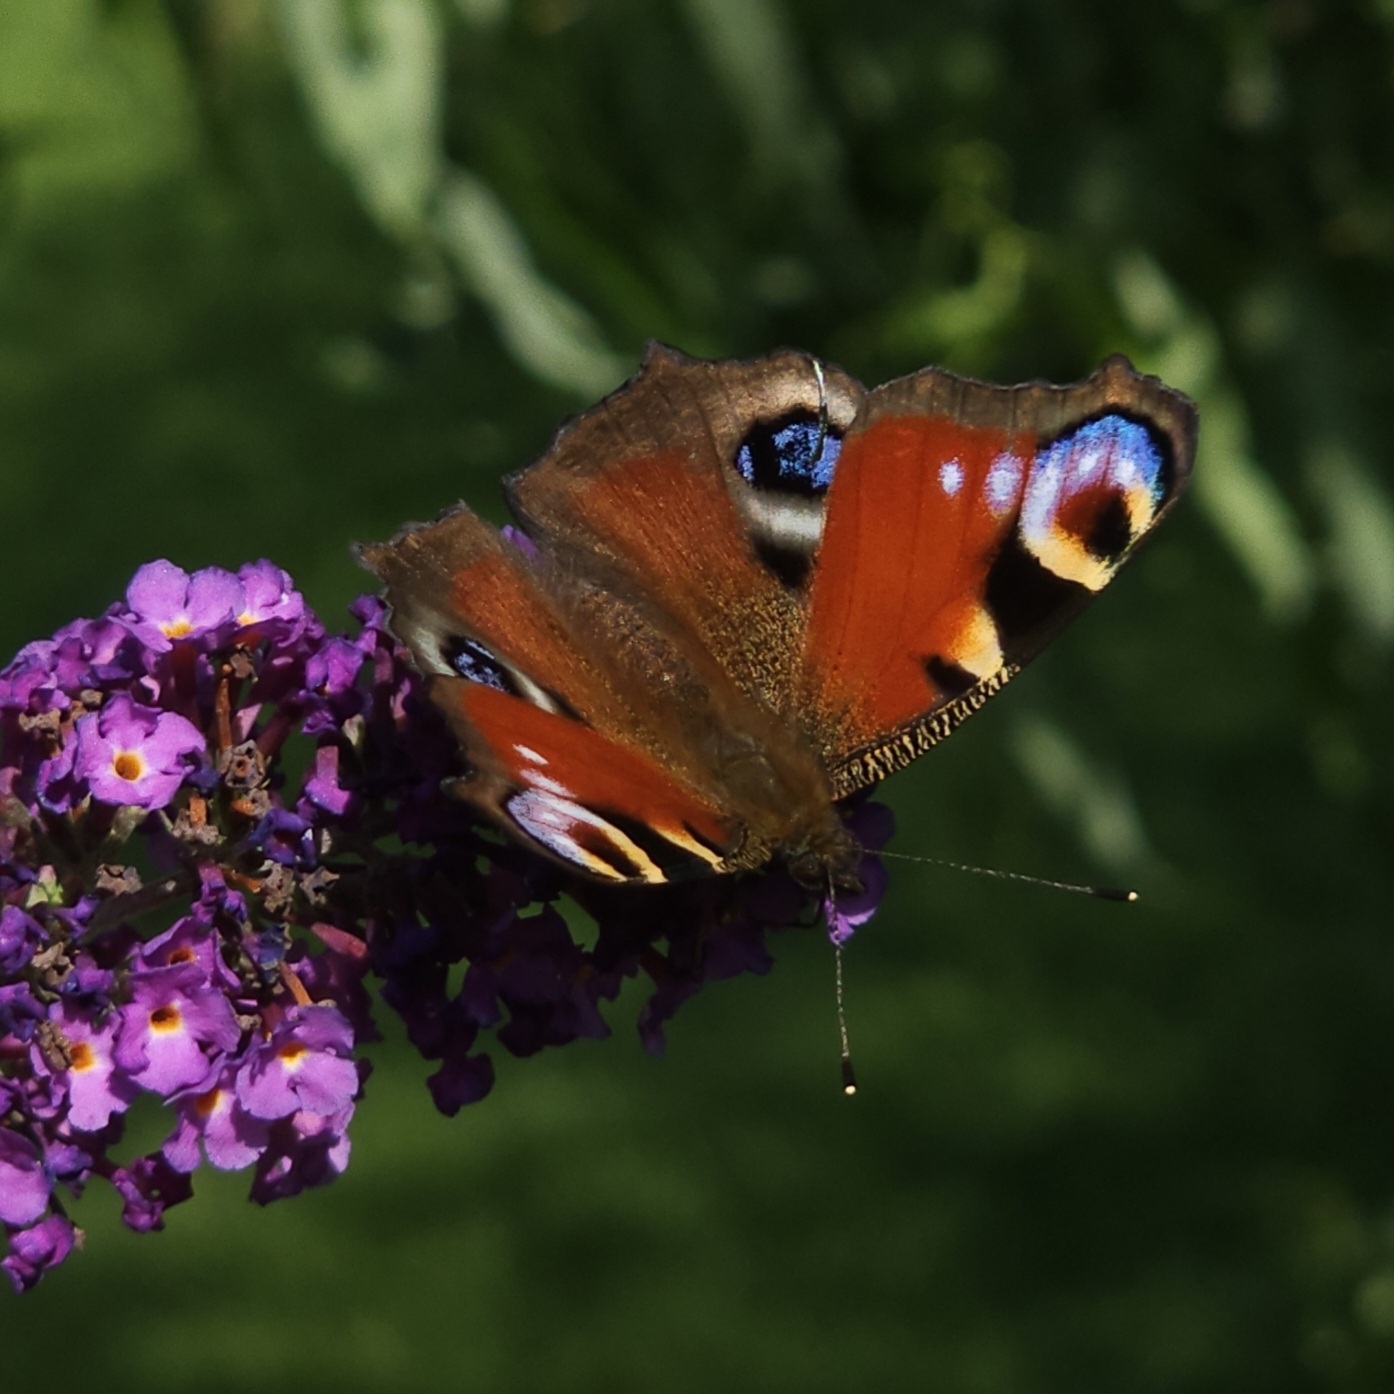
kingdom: Animalia
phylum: Arthropoda
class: Insecta
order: Lepidoptera
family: Nymphalidae
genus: Aglais
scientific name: Aglais io
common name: Peacock
